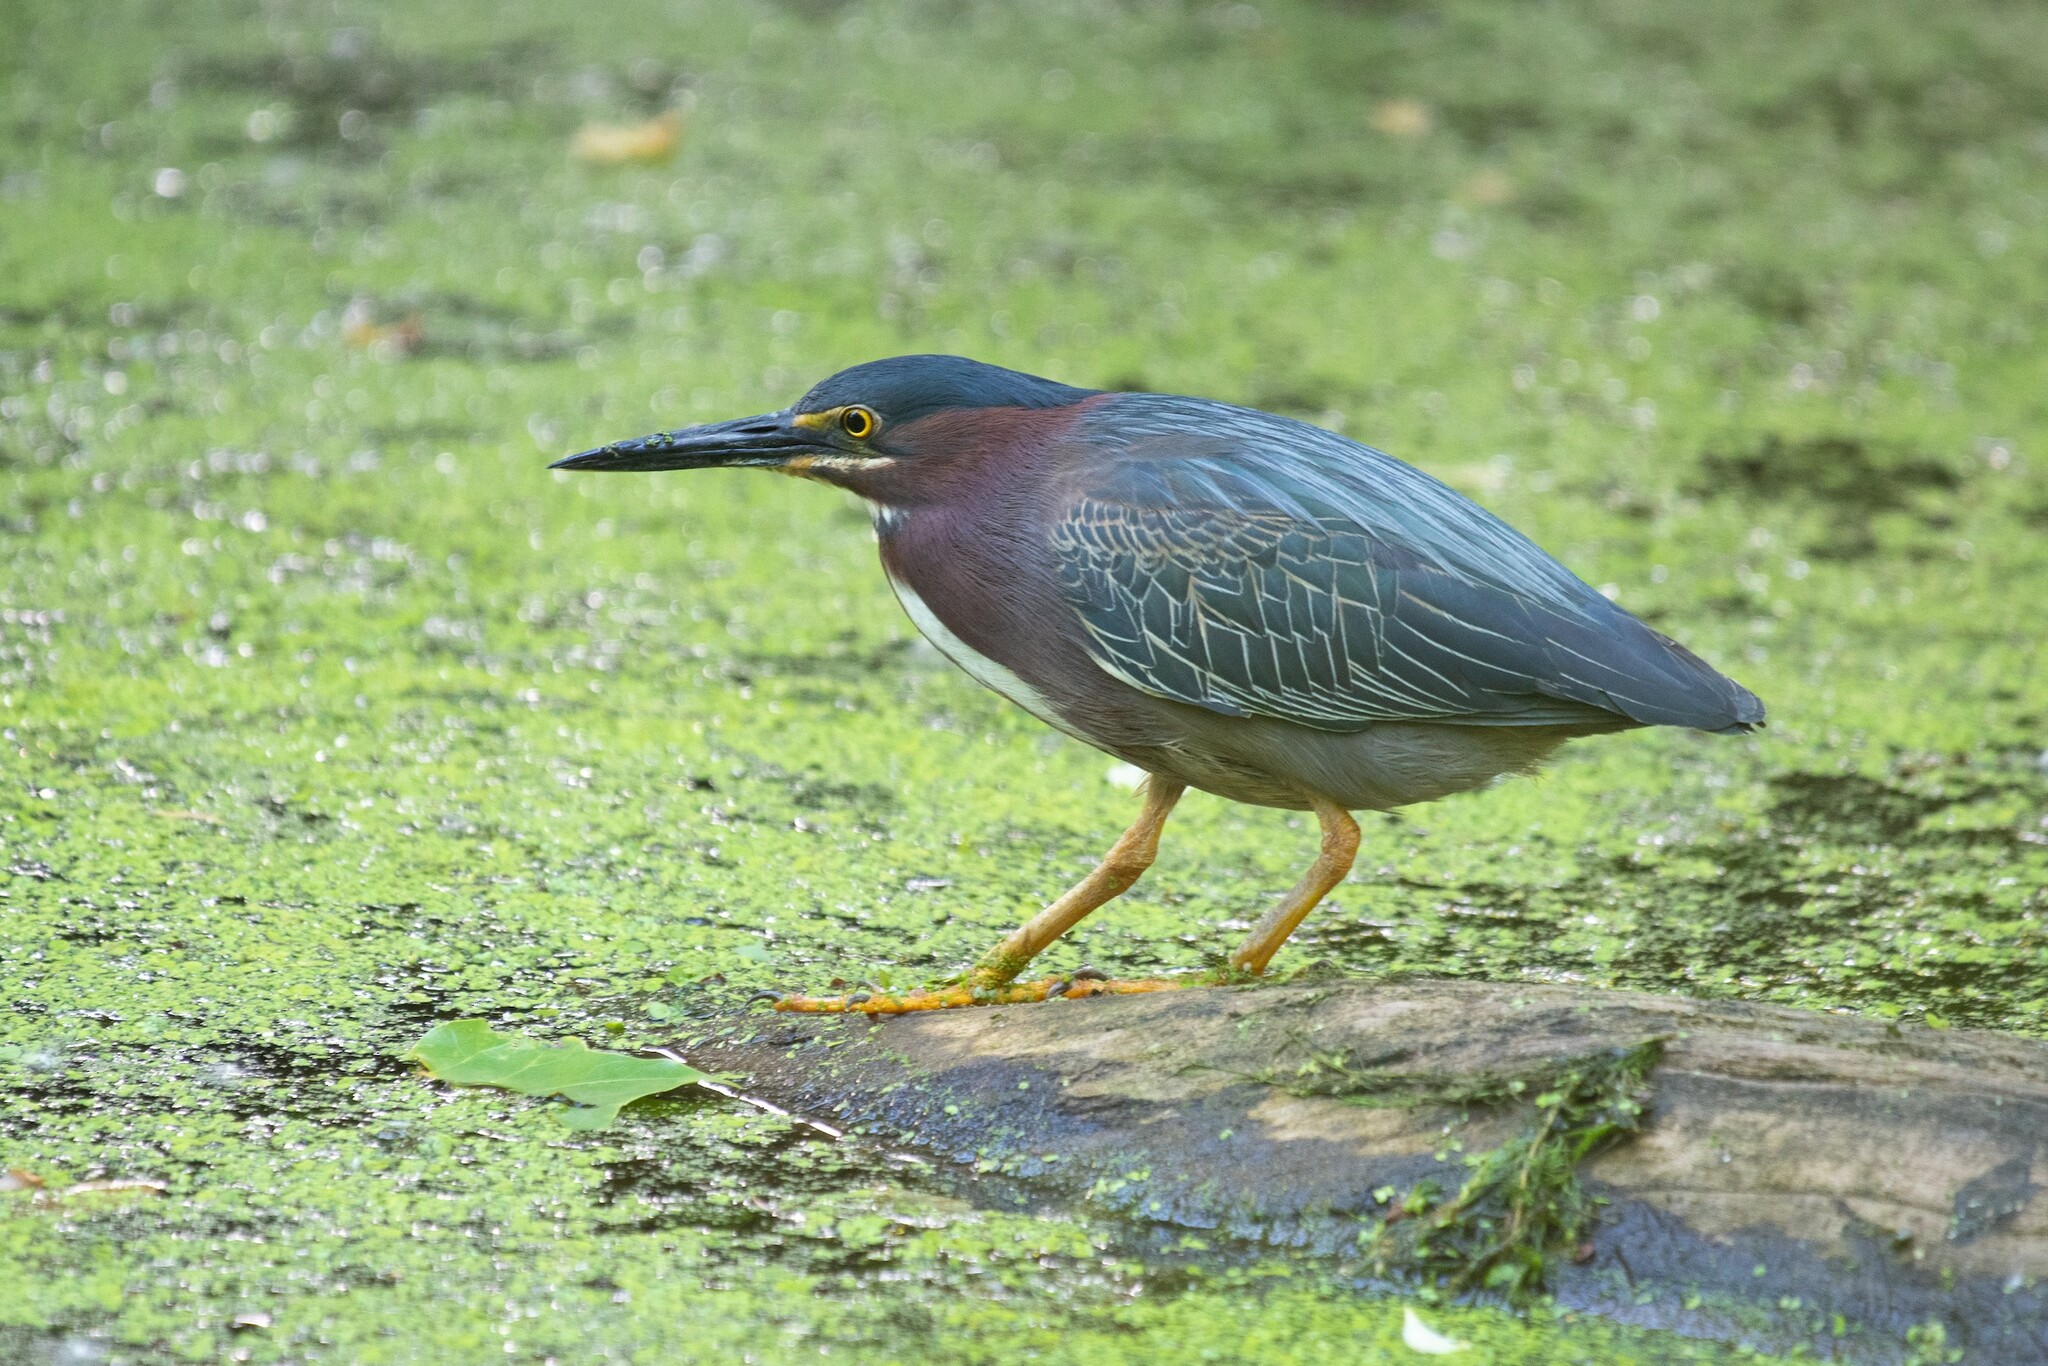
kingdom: Animalia
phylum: Chordata
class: Aves
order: Pelecaniformes
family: Ardeidae
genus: Butorides
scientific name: Butorides virescens
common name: Green heron
